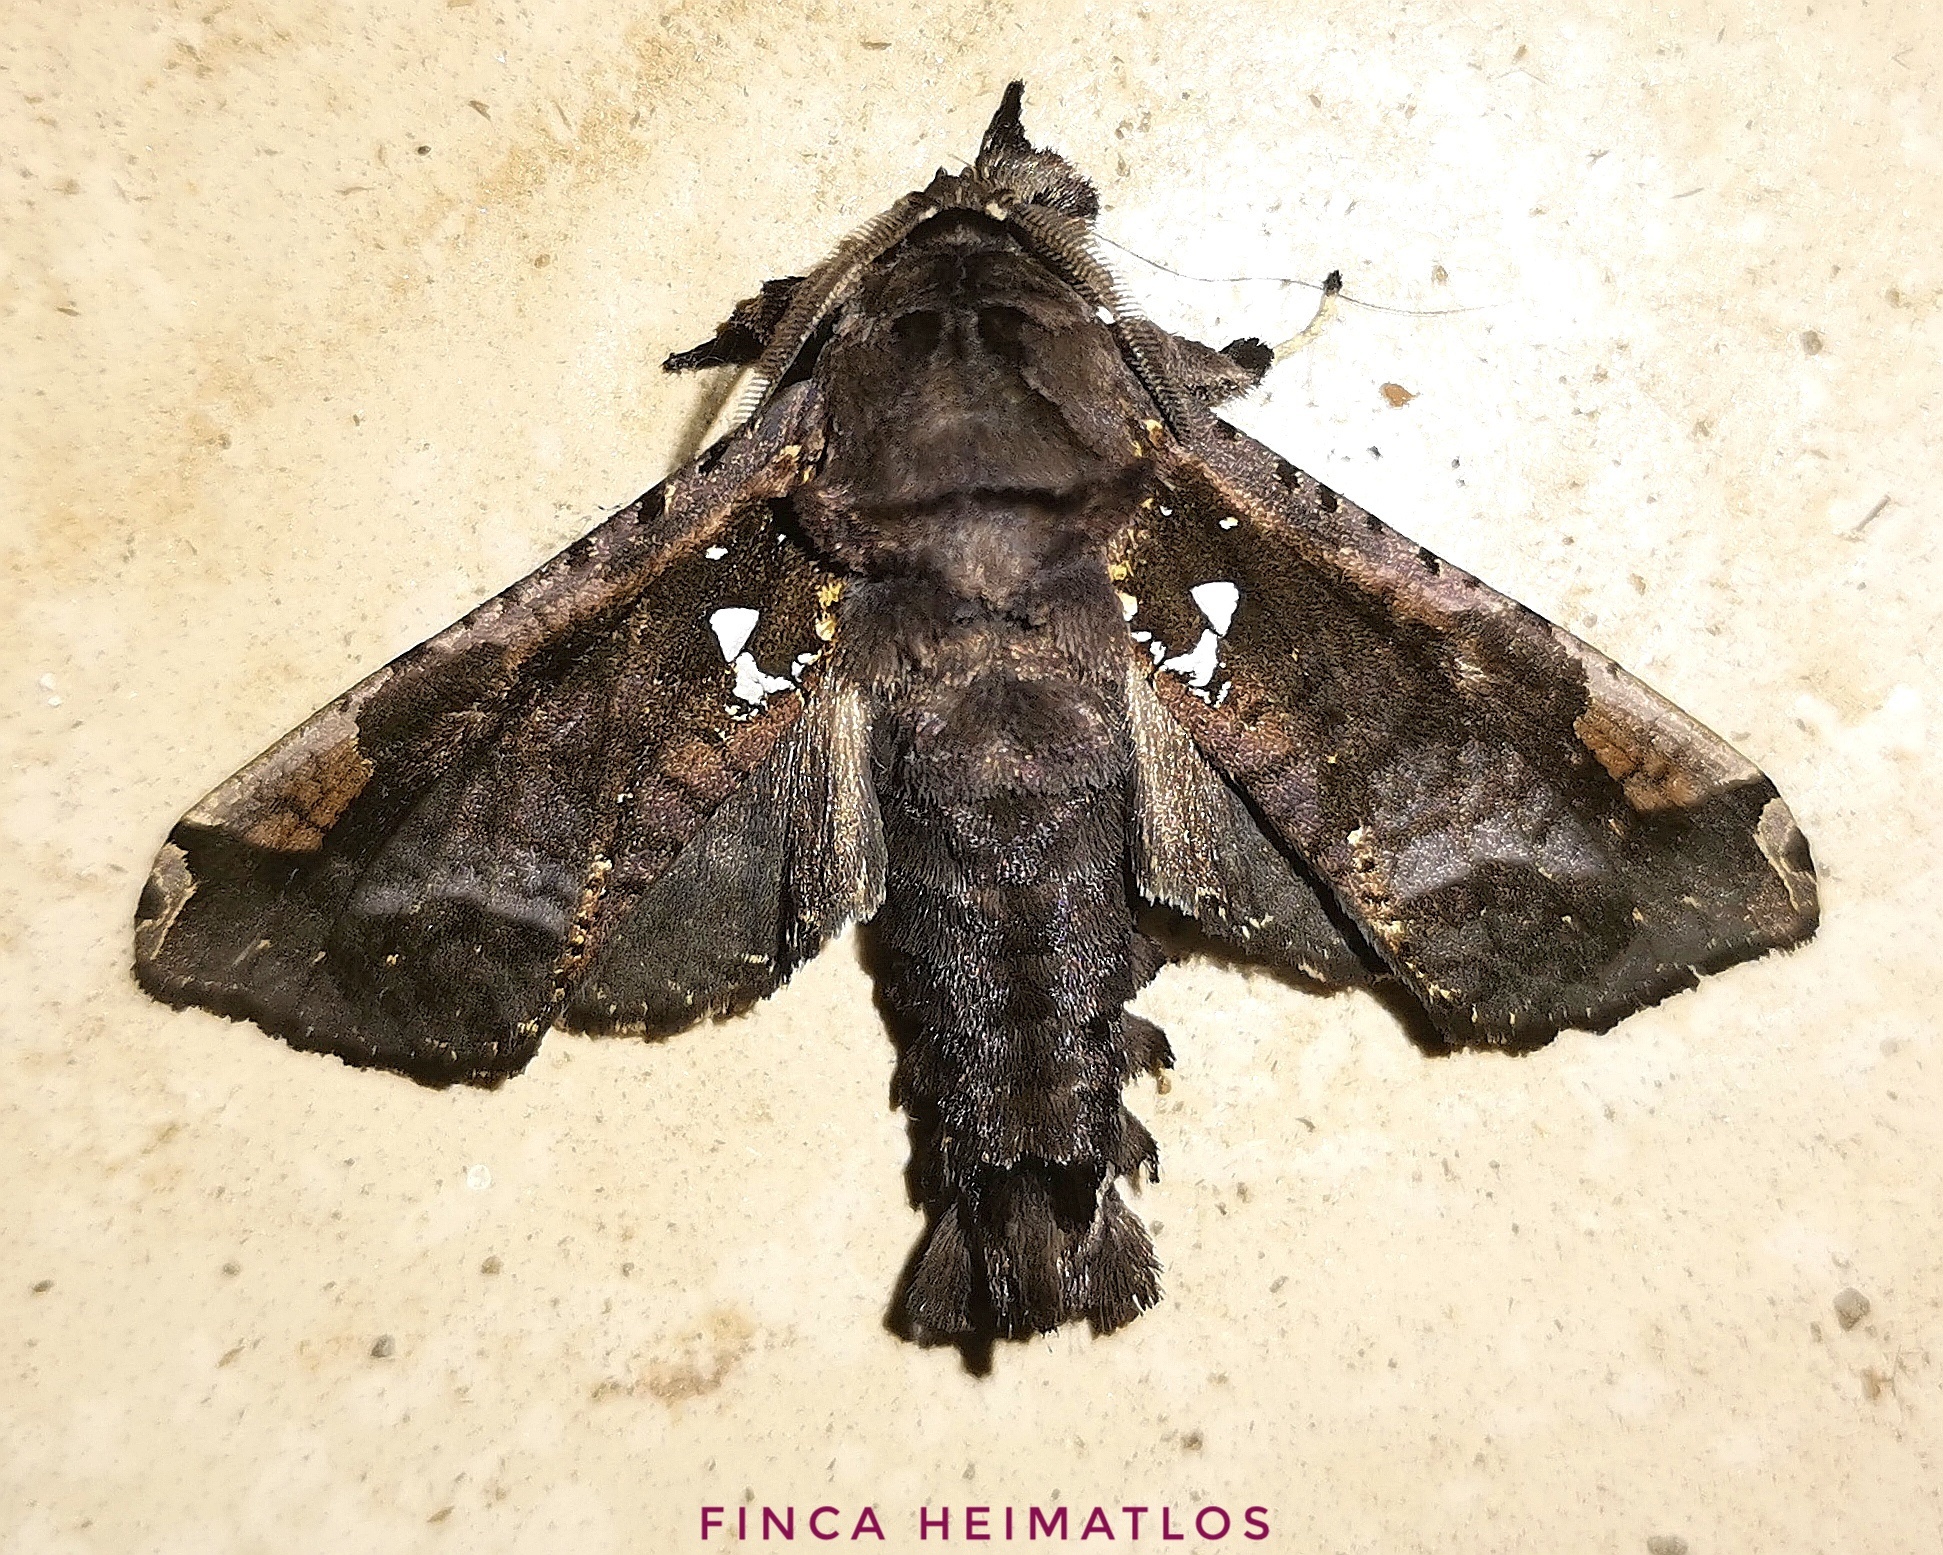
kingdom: Animalia
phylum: Arthropoda
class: Insecta
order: Lepidoptera
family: Cossidae
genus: Langsdorfia
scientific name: Langsdorfia franckii
